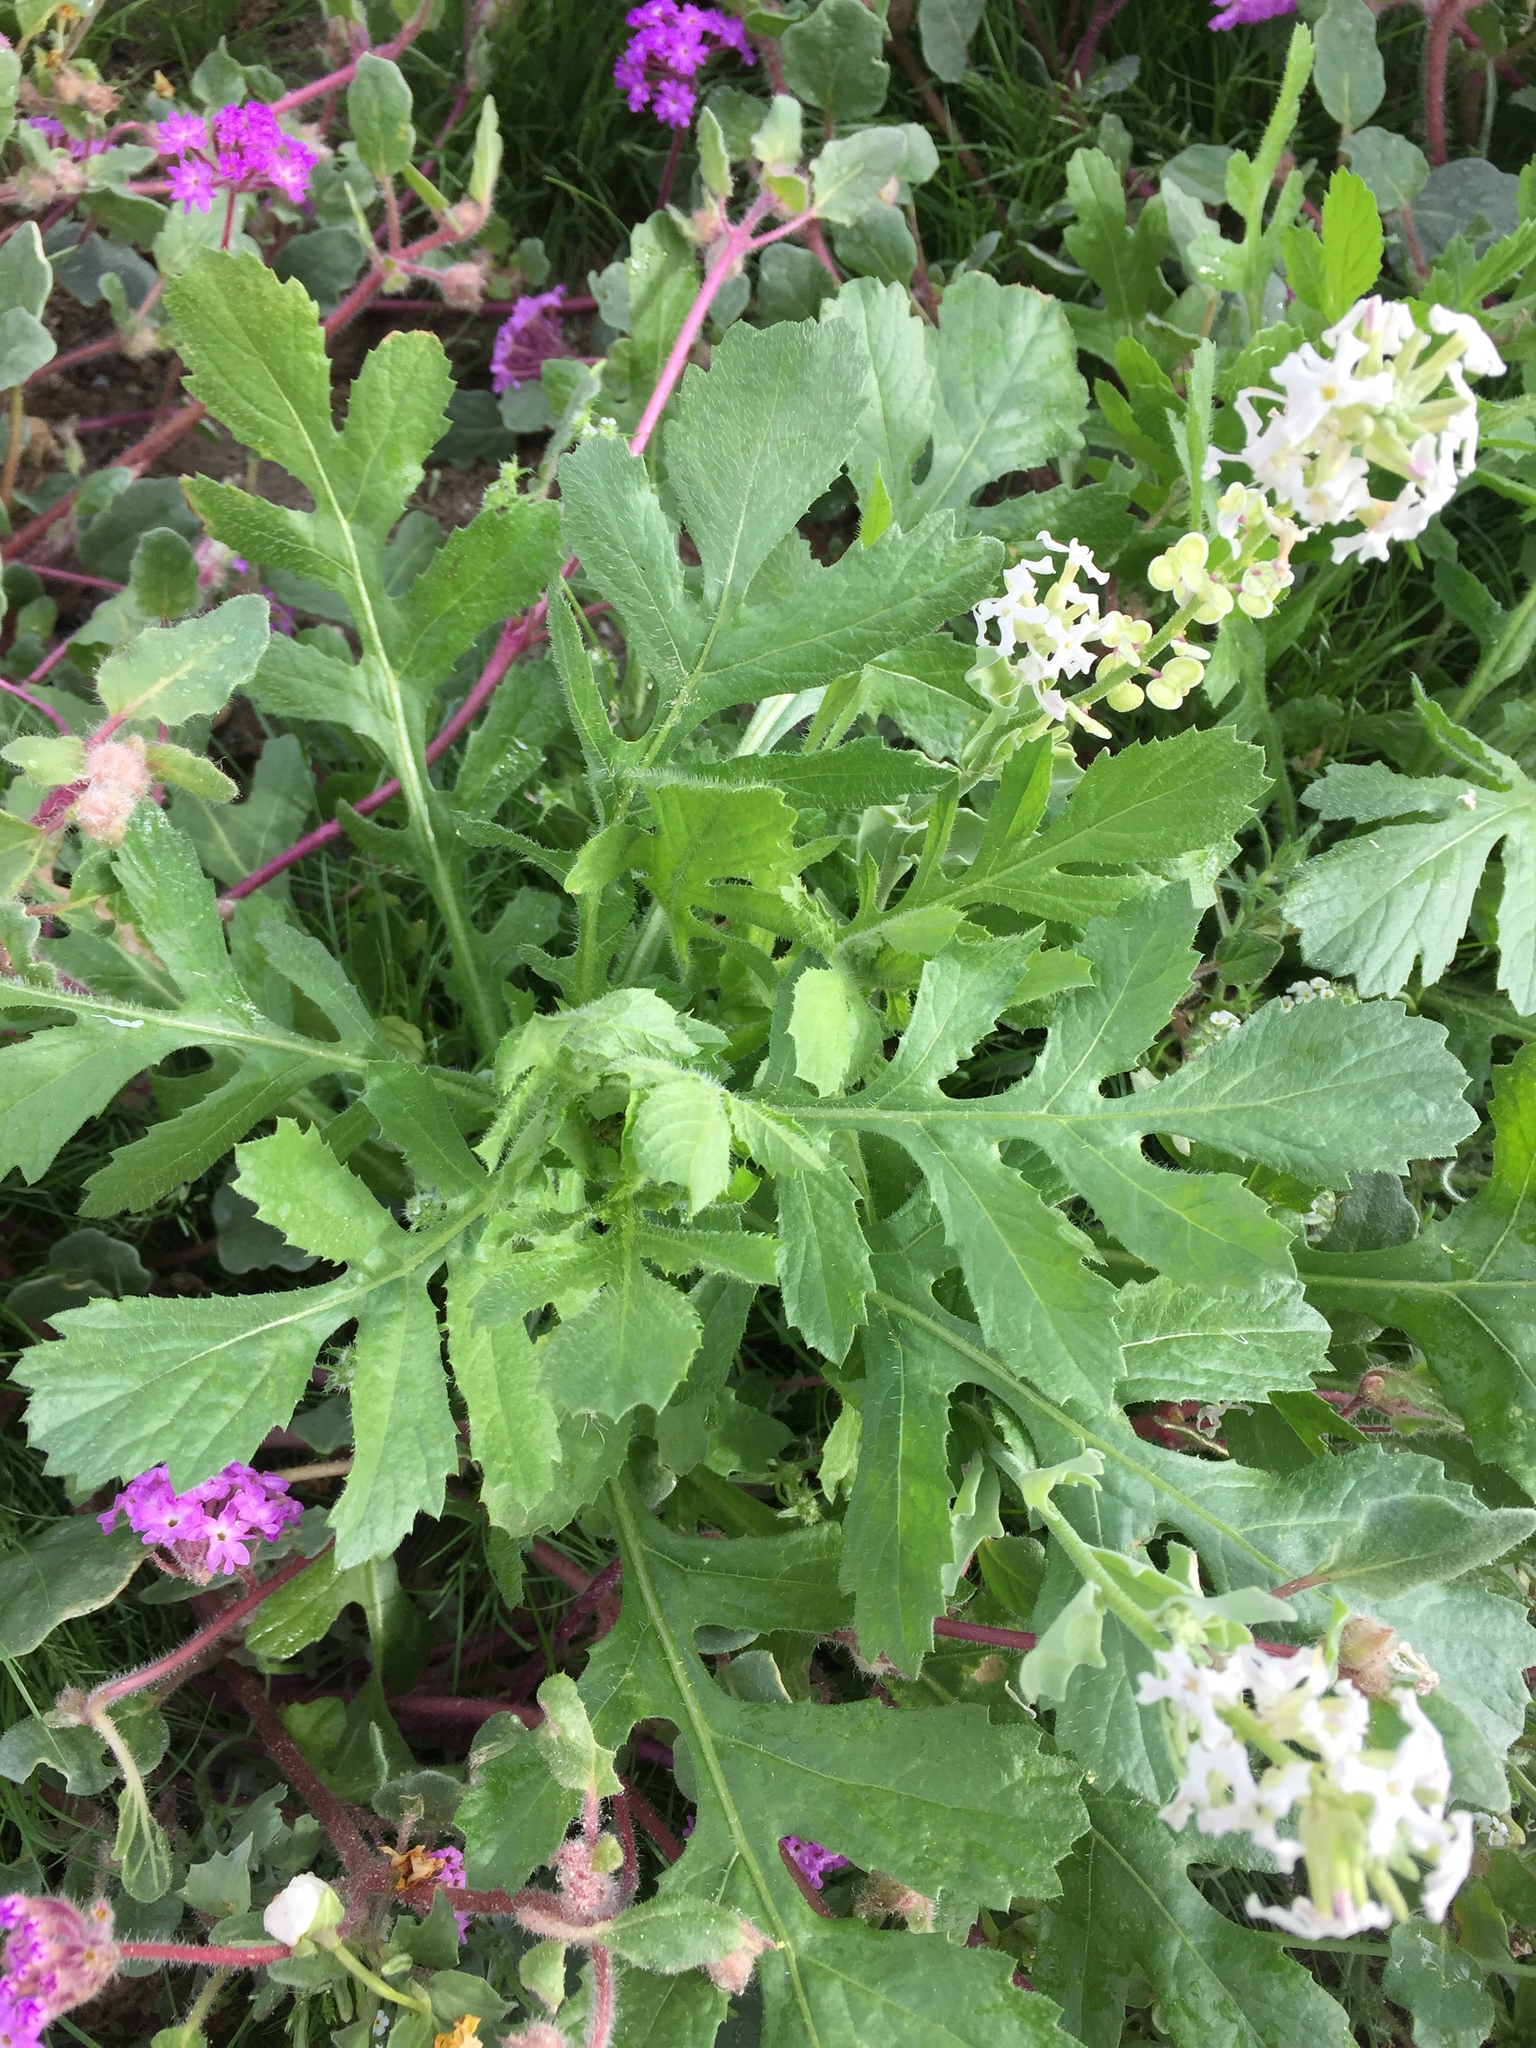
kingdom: Plantae
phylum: Tracheophyta
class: Magnoliopsida
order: Asterales
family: Asteraceae
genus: Volutaria
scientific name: Volutaria tubuliflora
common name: Desert knapweed
